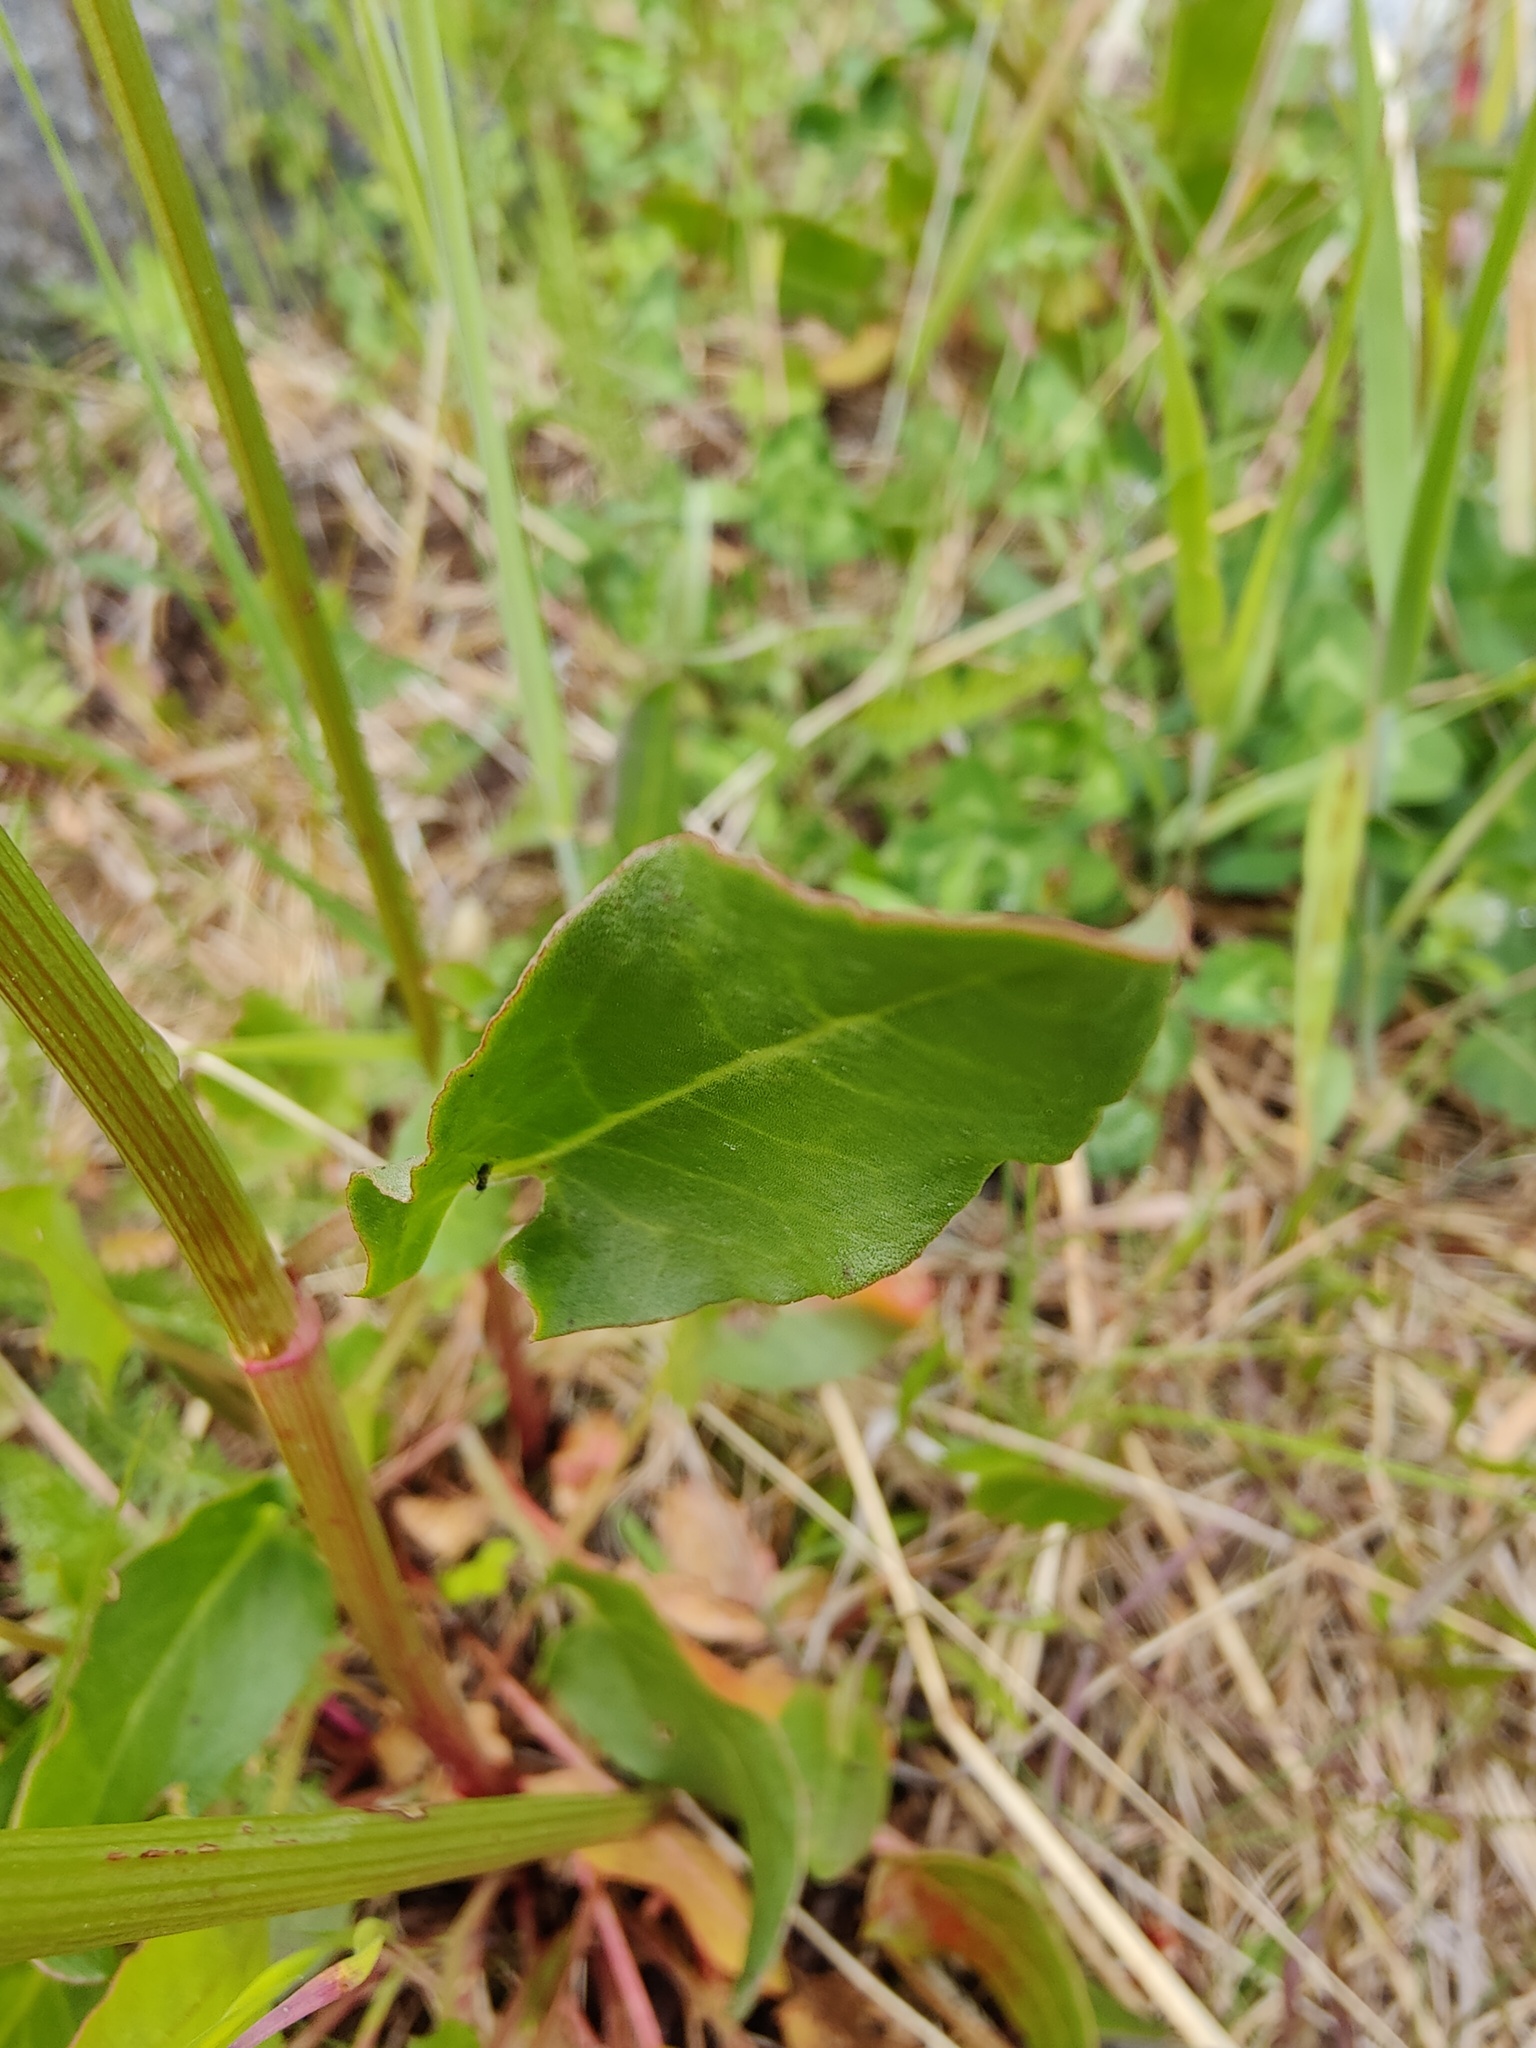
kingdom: Plantae
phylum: Tracheophyta
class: Magnoliopsida
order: Caryophyllales
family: Polygonaceae
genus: Rumex
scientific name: Rumex thyrsiflorus
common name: Garden sorrel
